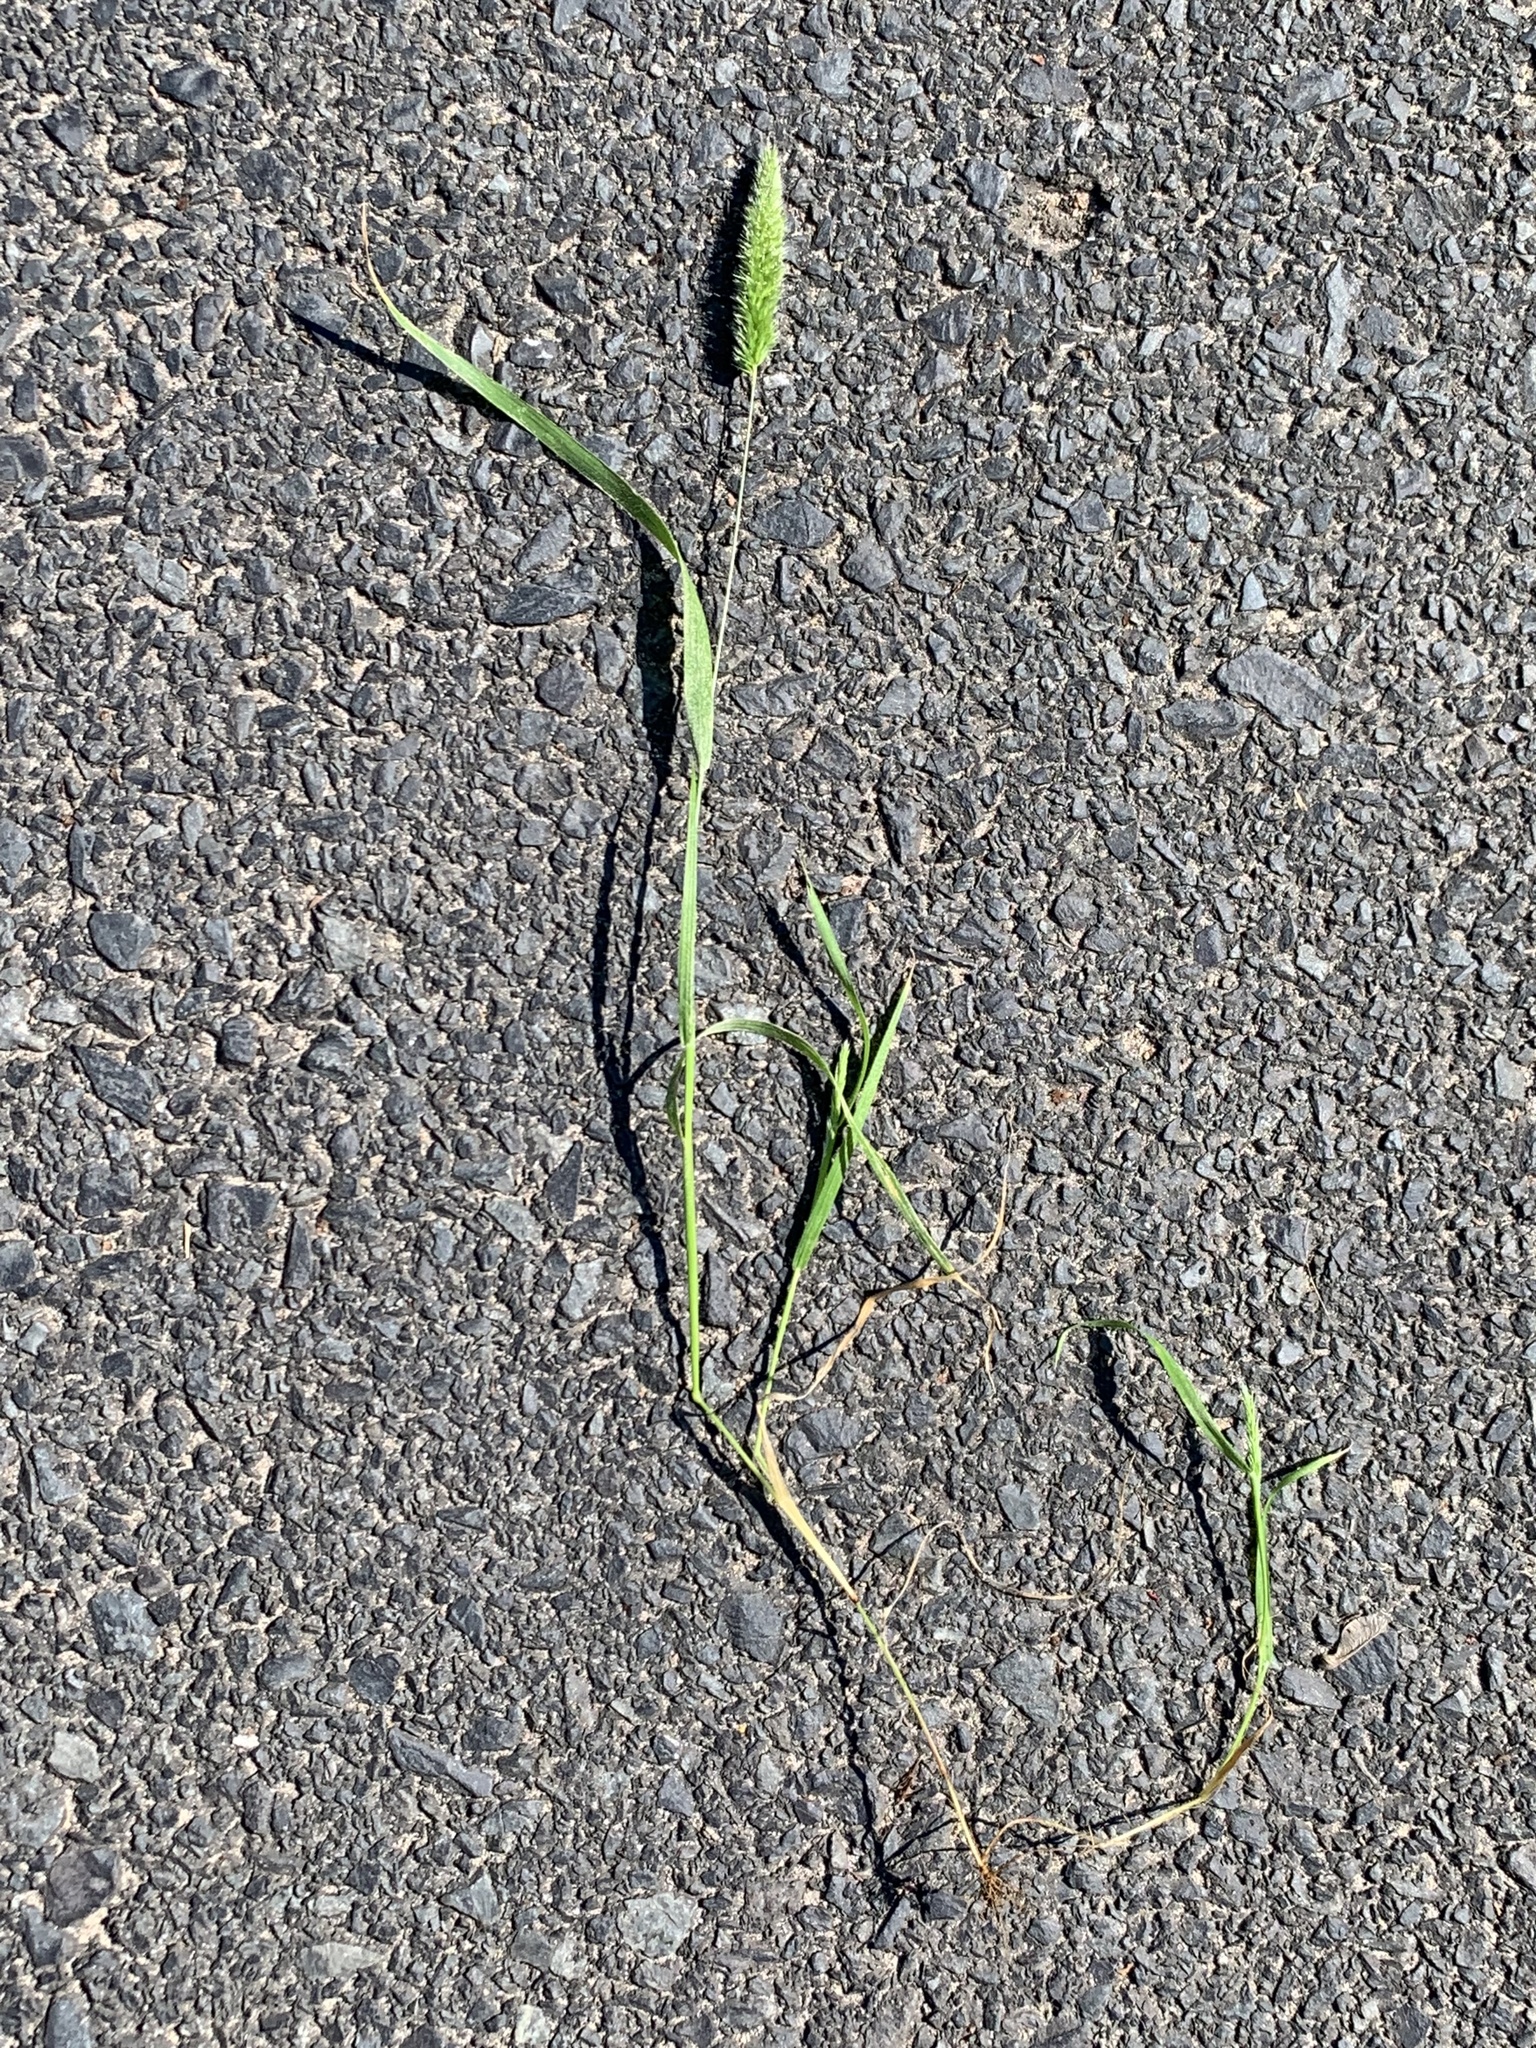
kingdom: Plantae
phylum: Tracheophyta
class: Liliopsida
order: Poales
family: Poaceae
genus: Rostraria
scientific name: Rostraria cristata
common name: Mediterranean hair-grass
